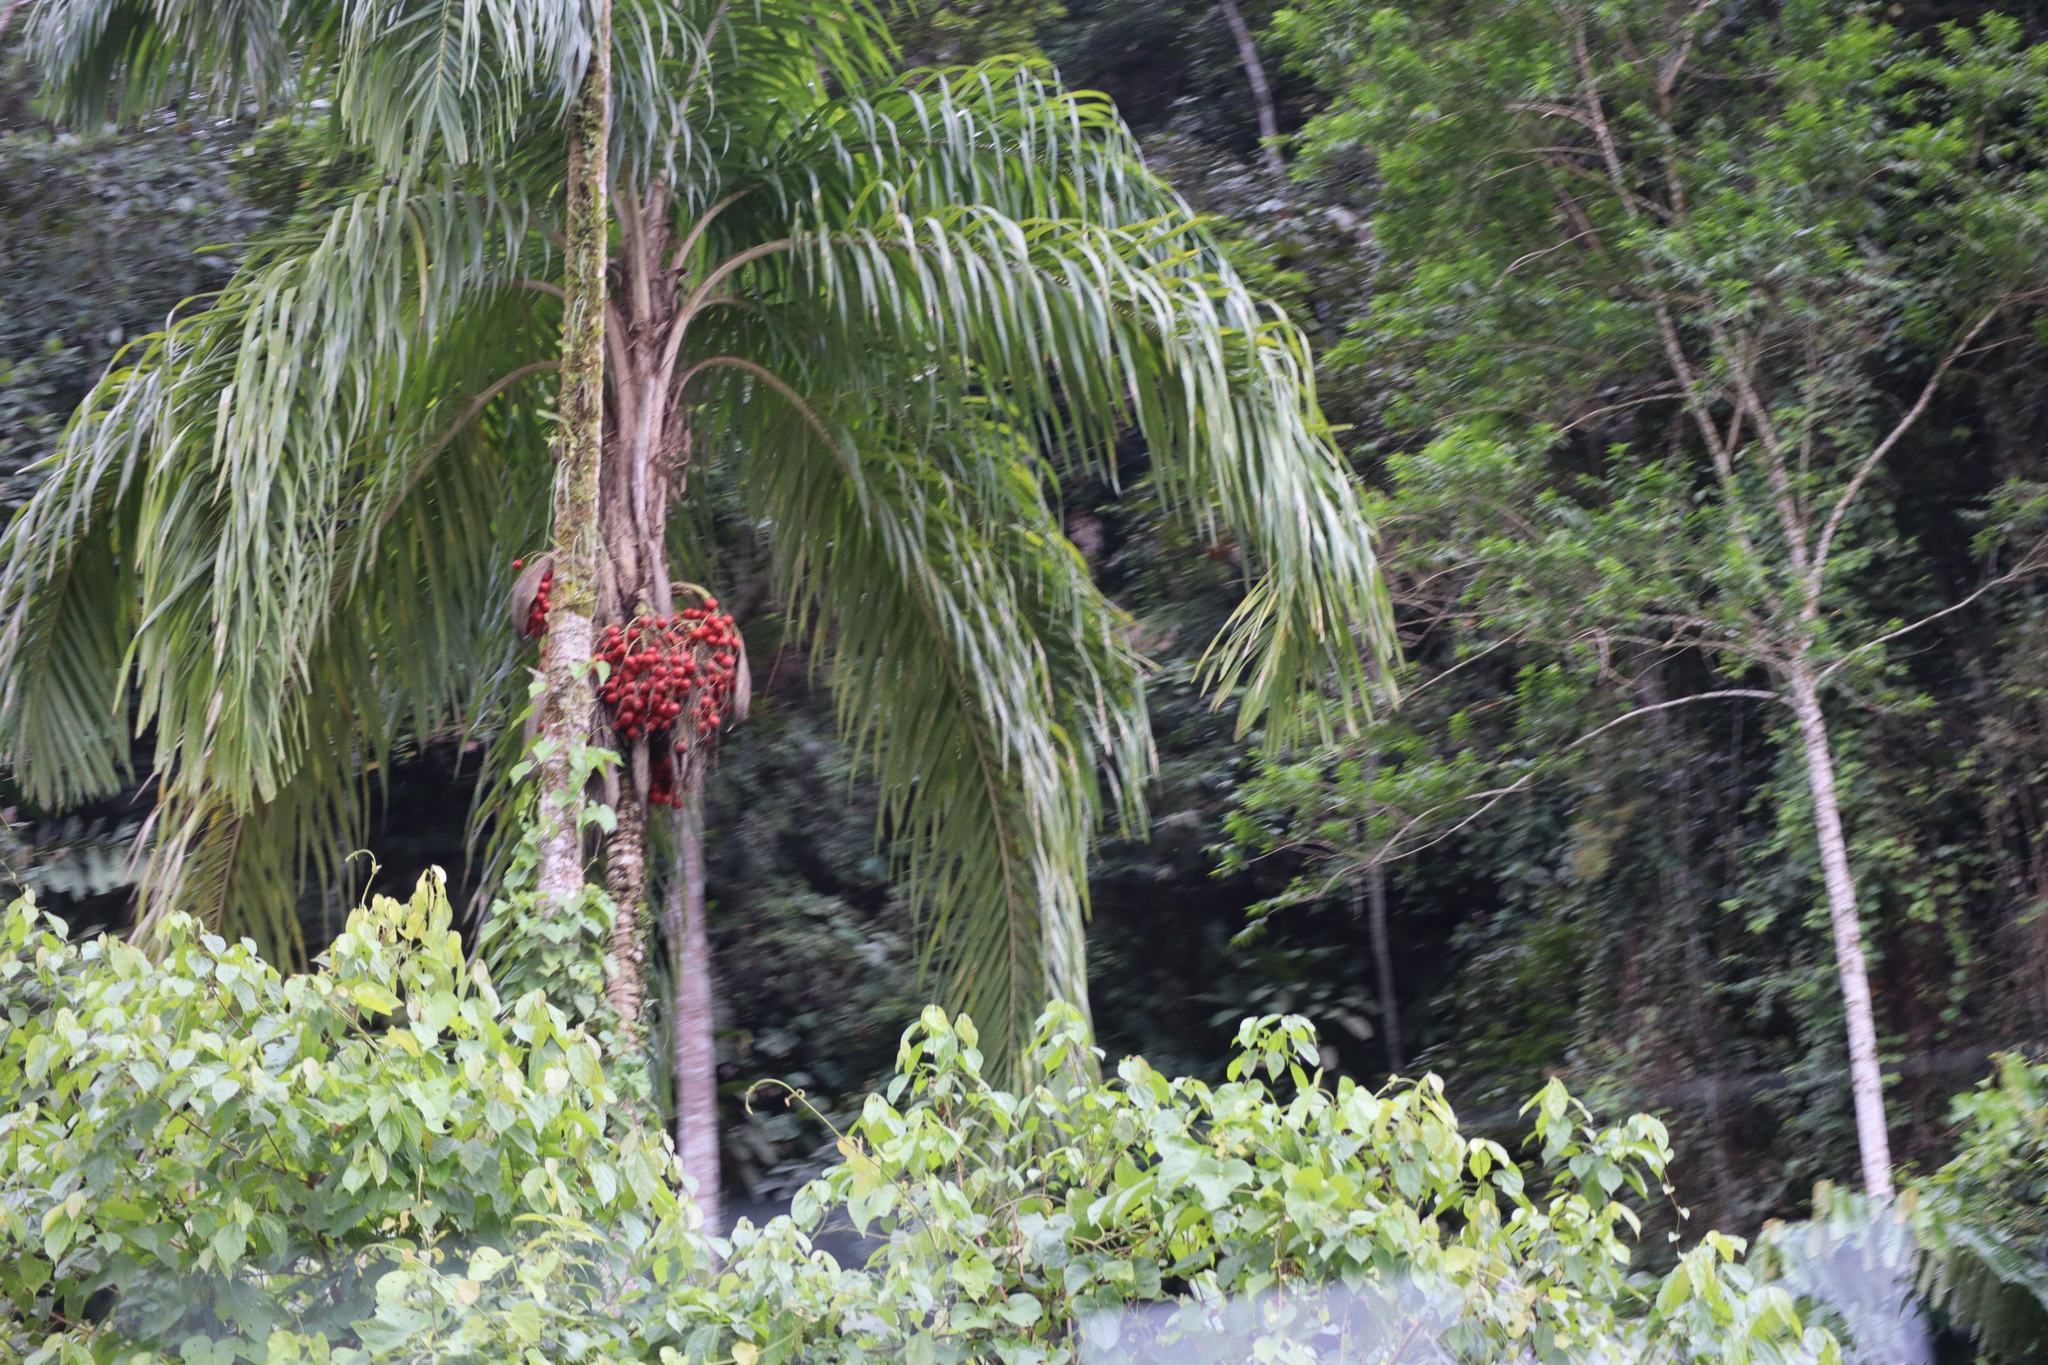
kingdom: Plantae
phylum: Tracheophyta
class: Liliopsida
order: Arecales
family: Arecaceae
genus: Bactris
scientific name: Bactris gasipaes
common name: Peach palm
